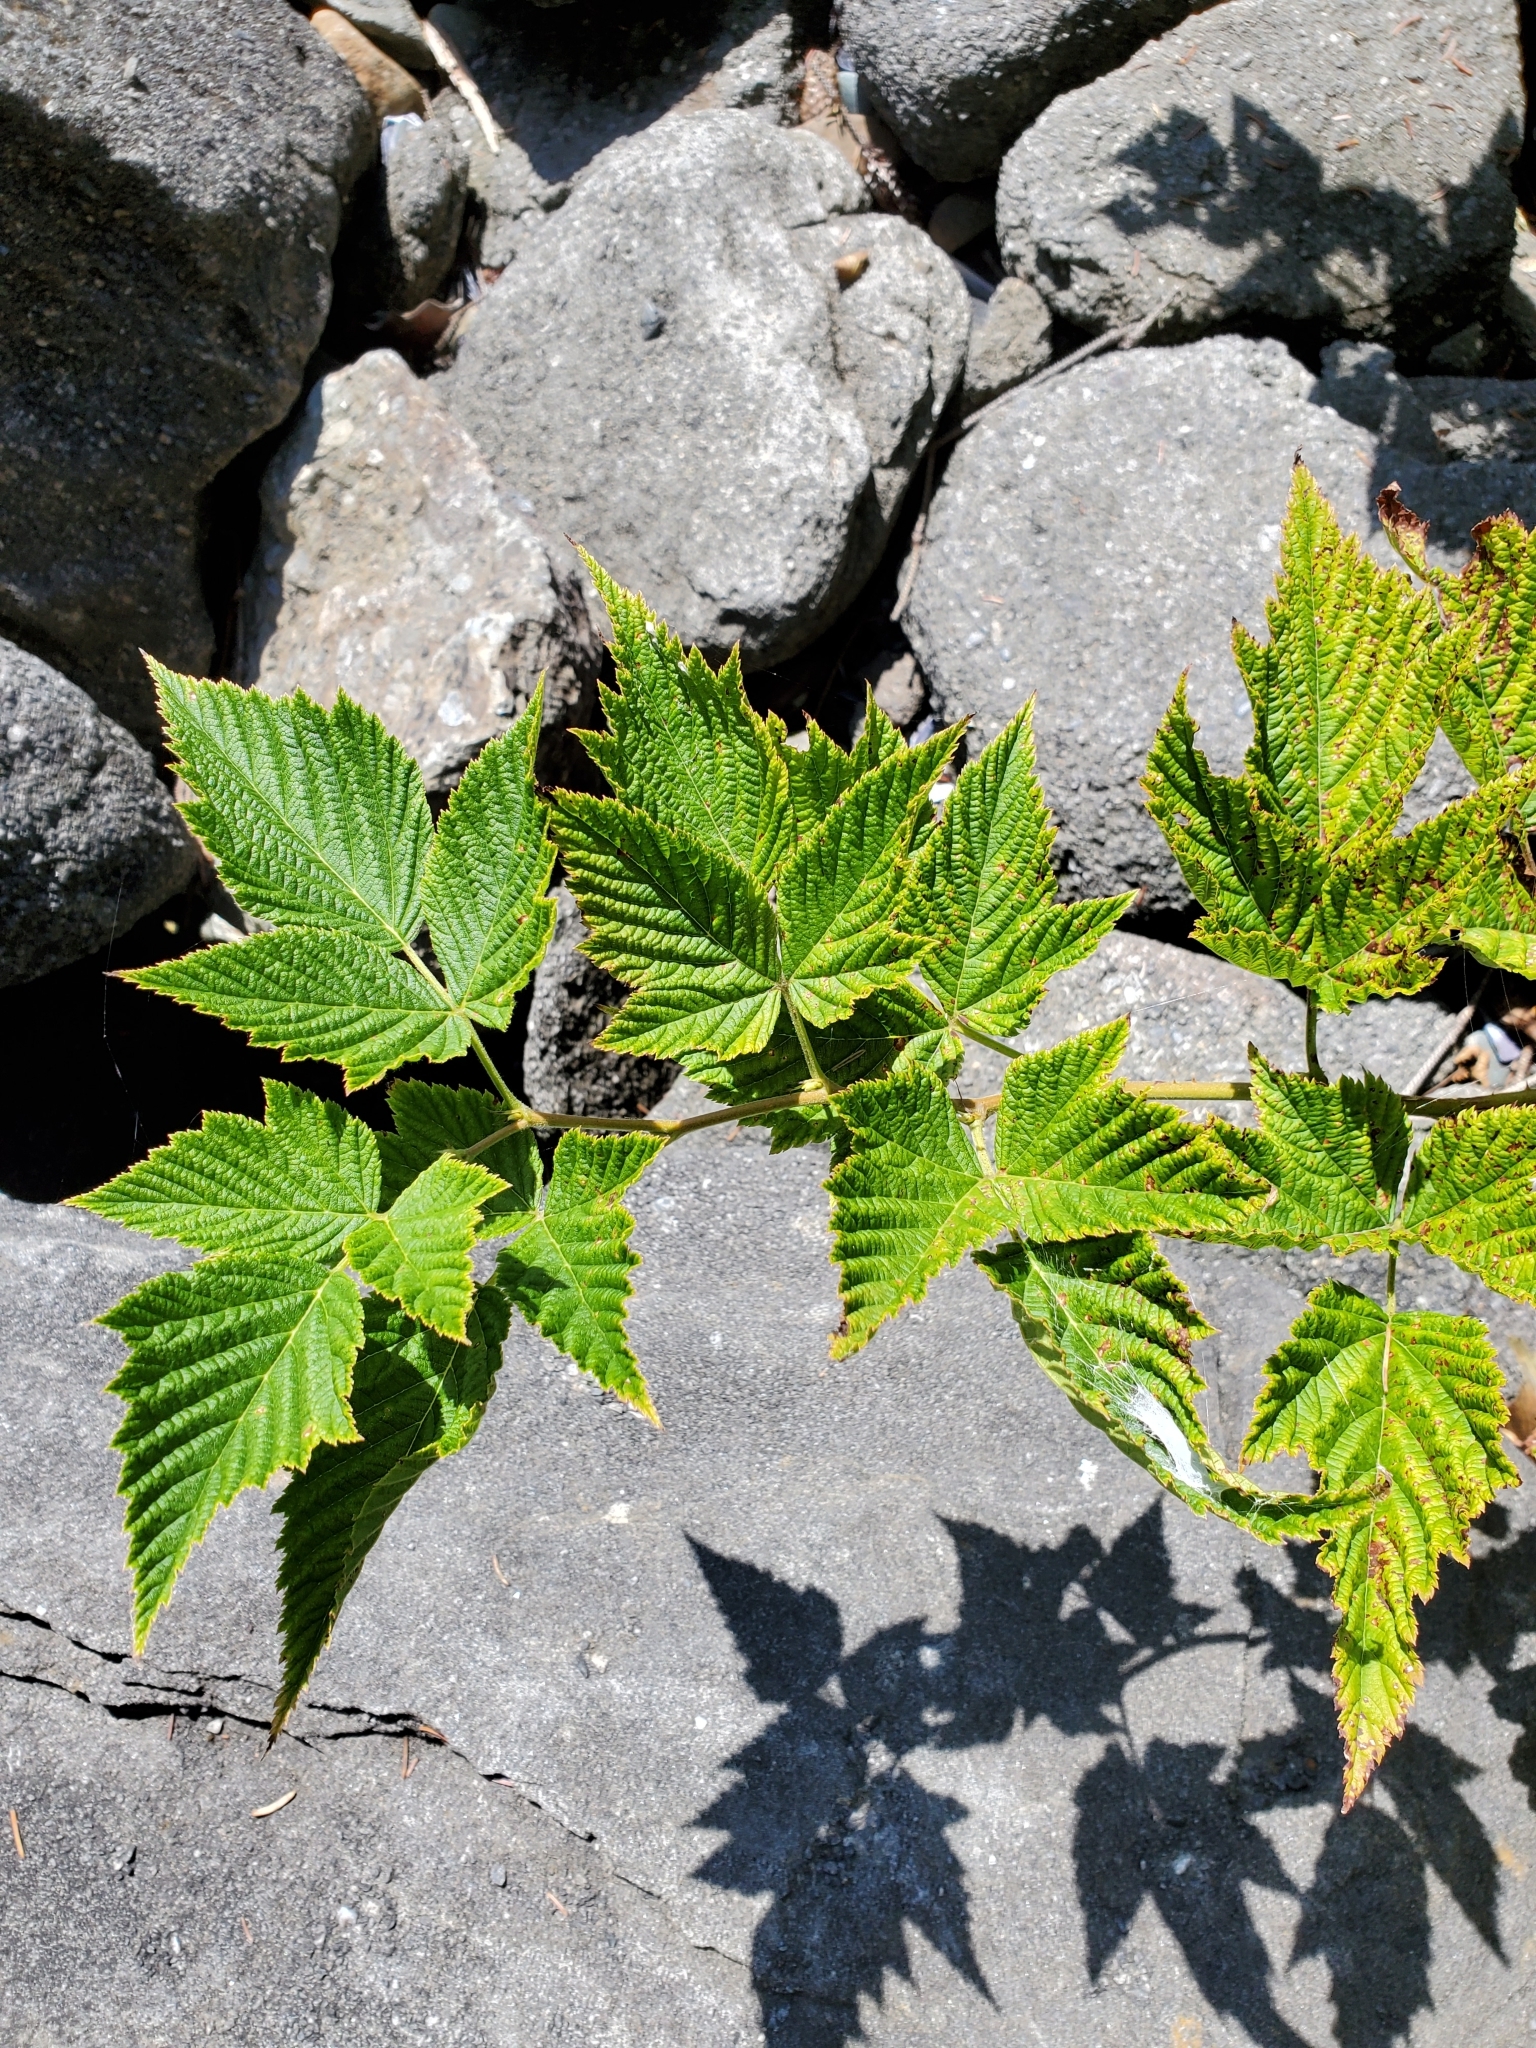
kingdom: Plantae
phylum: Tracheophyta
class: Magnoliopsida
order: Rosales
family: Rosaceae
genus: Rubus
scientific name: Rubus spectabilis
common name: Salmonberry
